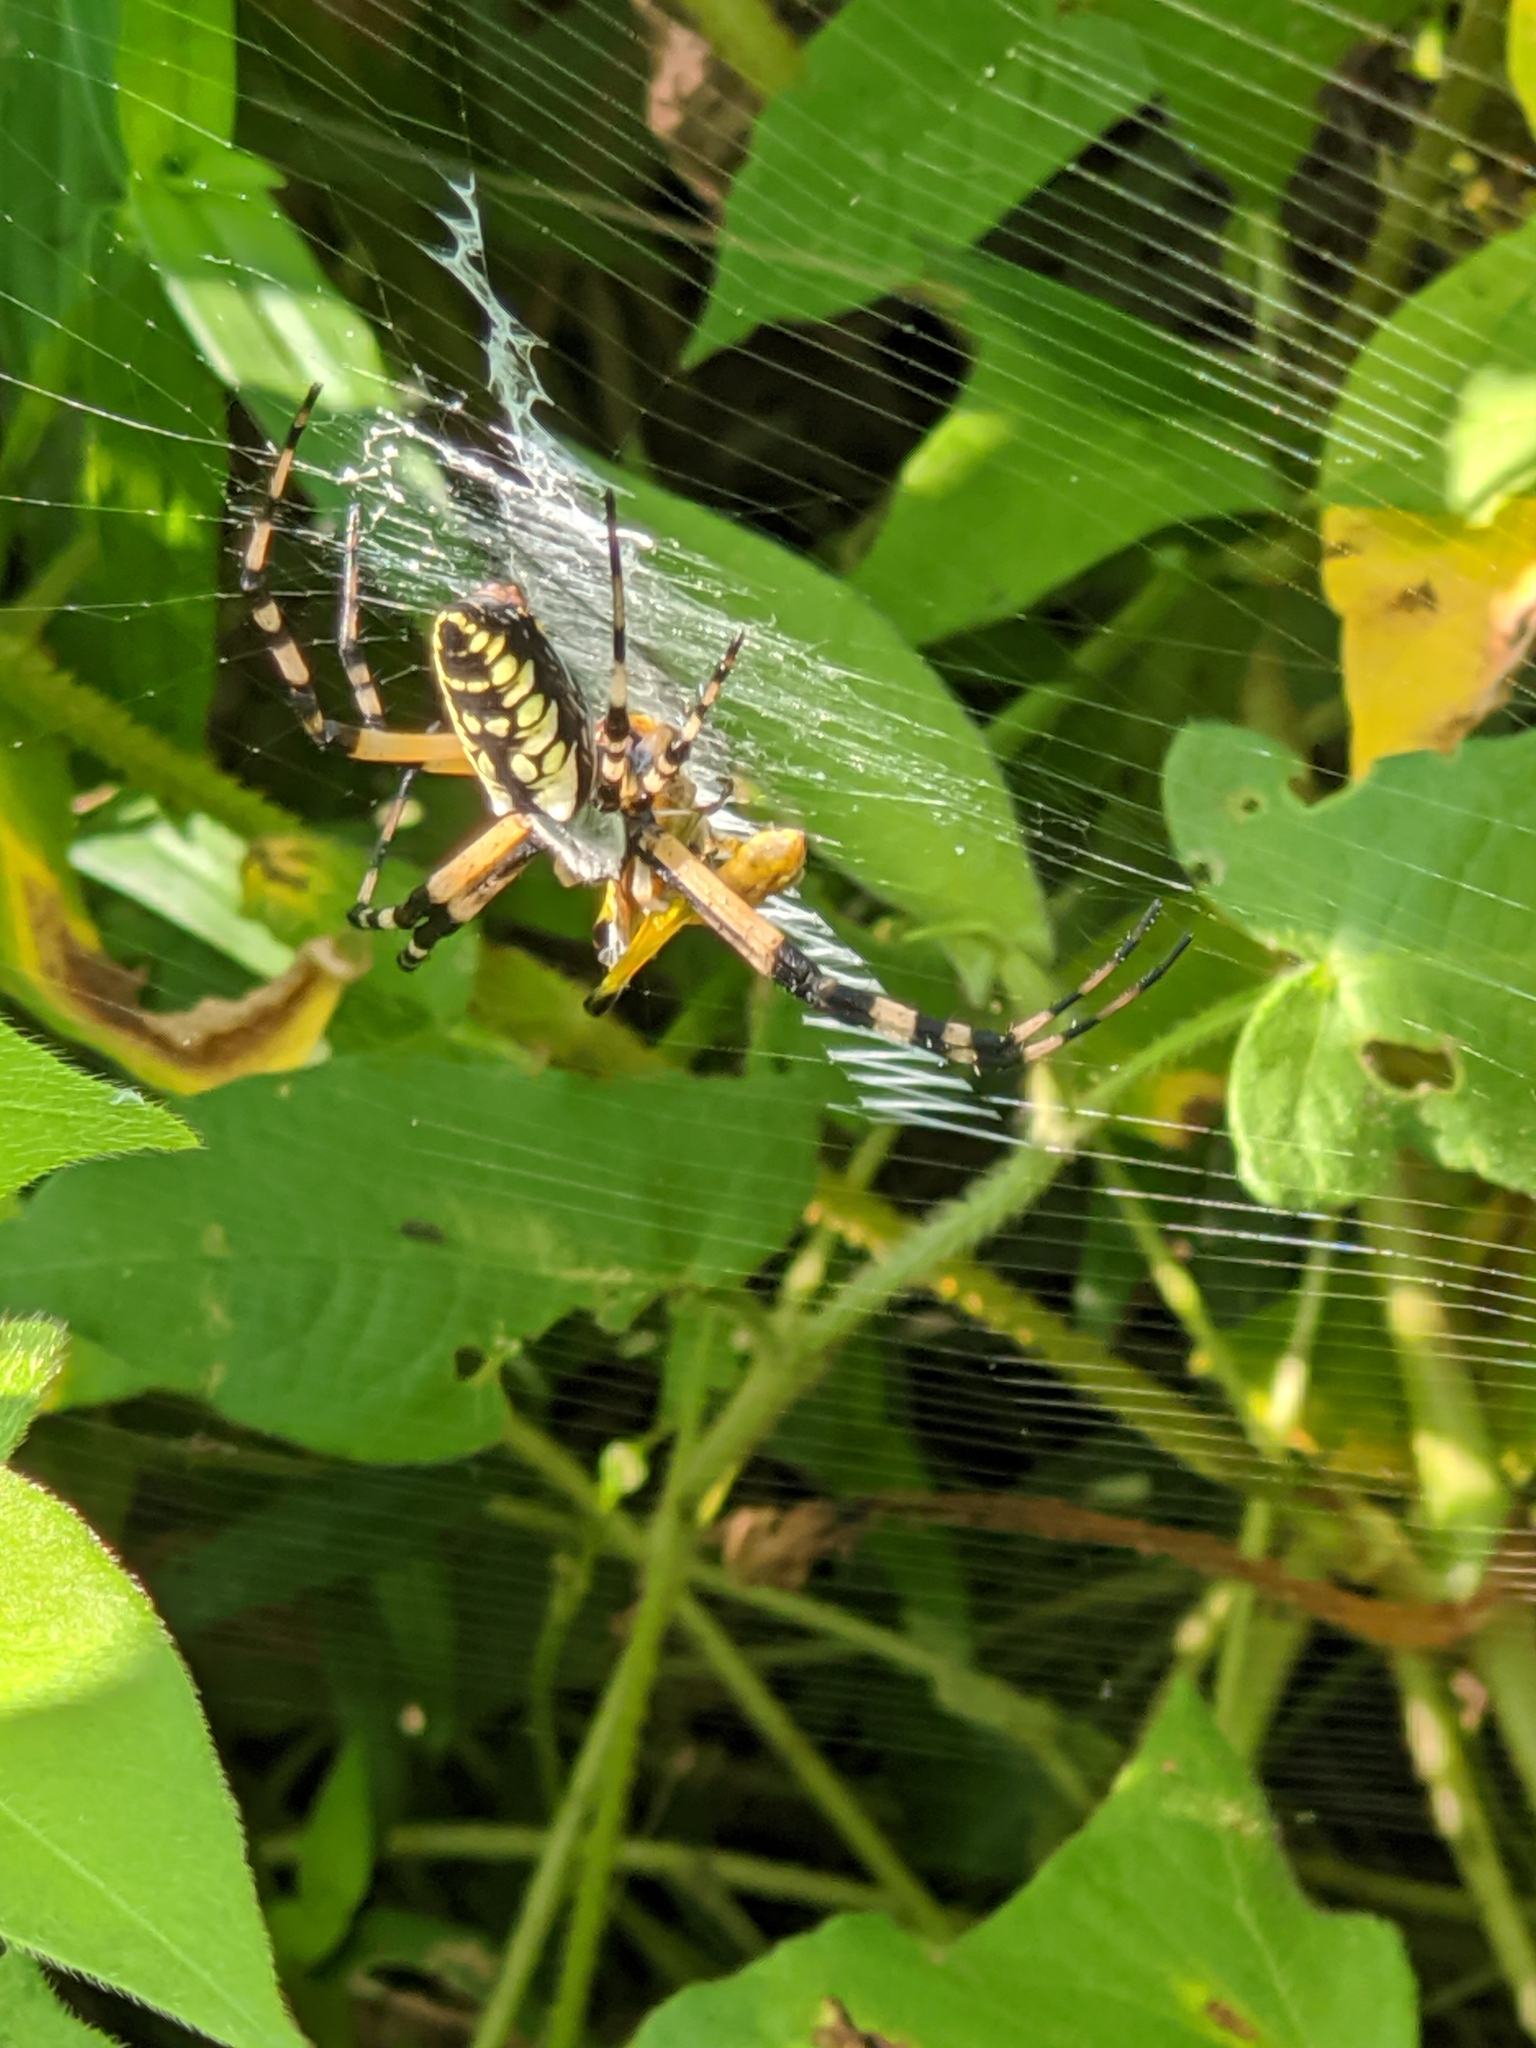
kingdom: Animalia
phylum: Arthropoda
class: Arachnida
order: Araneae
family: Araneidae
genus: Argiope
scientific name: Argiope aurantia
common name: Orb weavers
